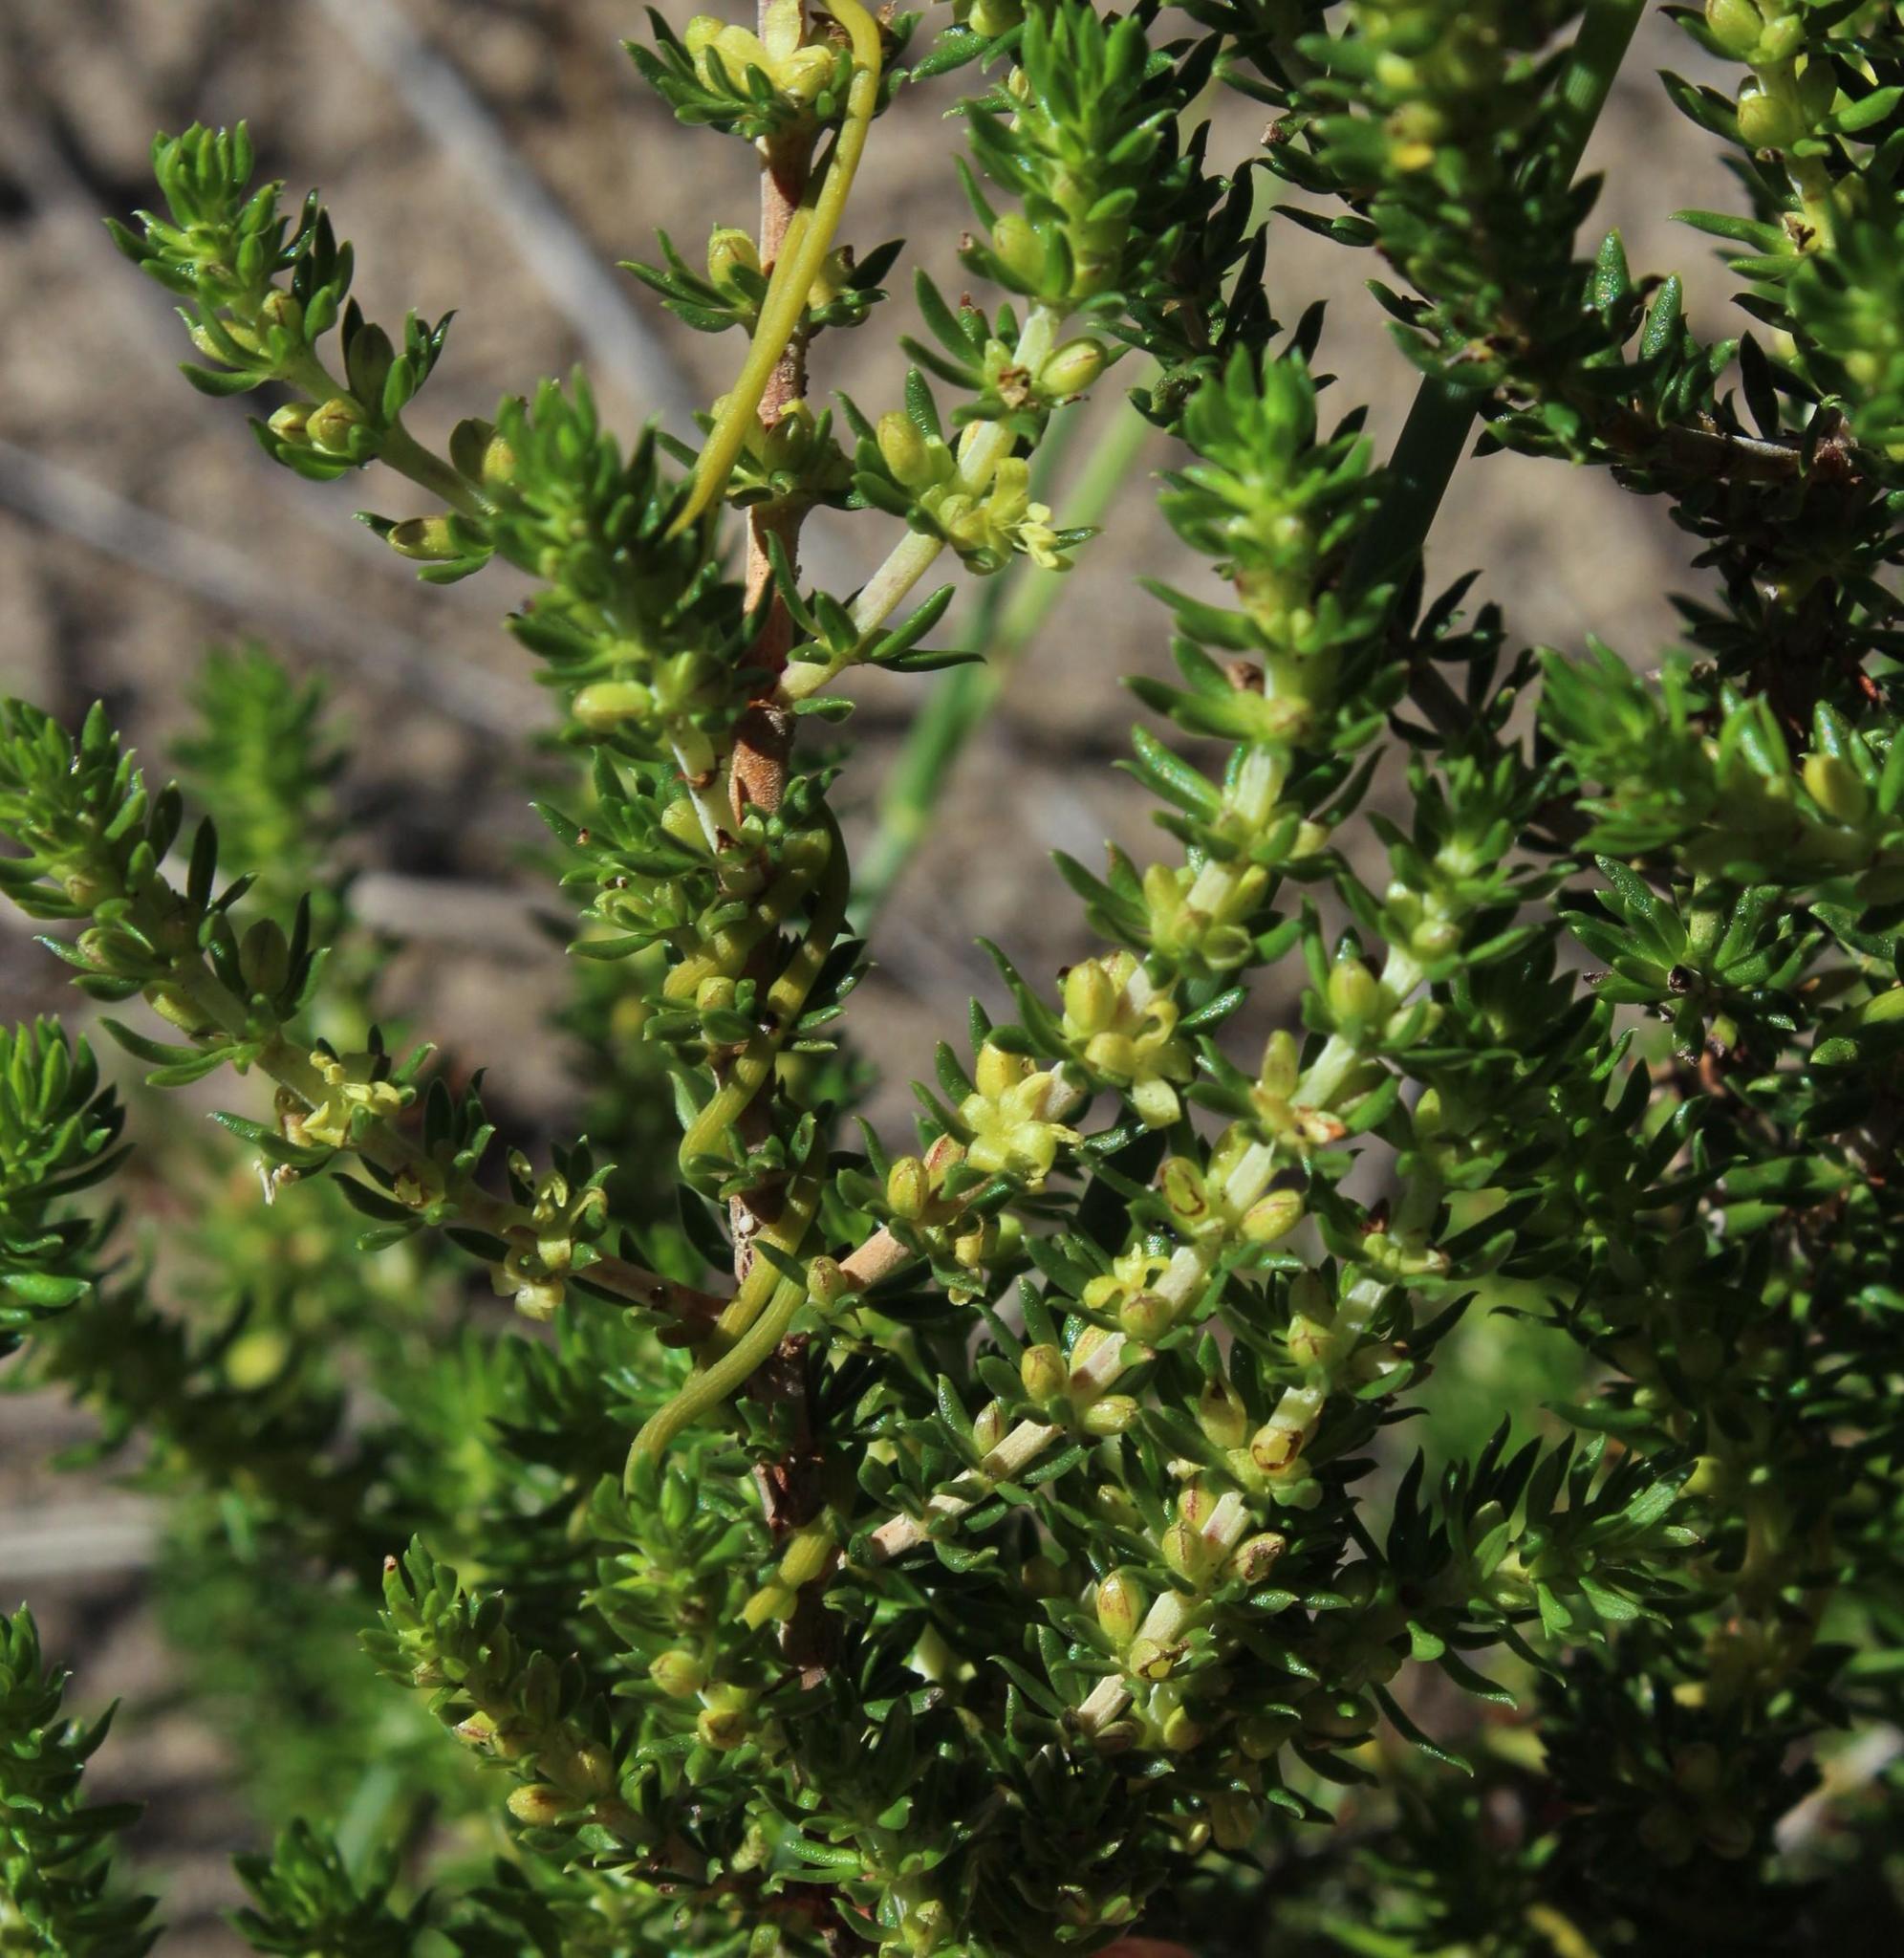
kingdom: Plantae
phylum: Tracheophyta
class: Magnoliopsida
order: Gentianales
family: Rubiaceae
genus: Anthospermum
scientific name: Anthospermum aethiopicum
